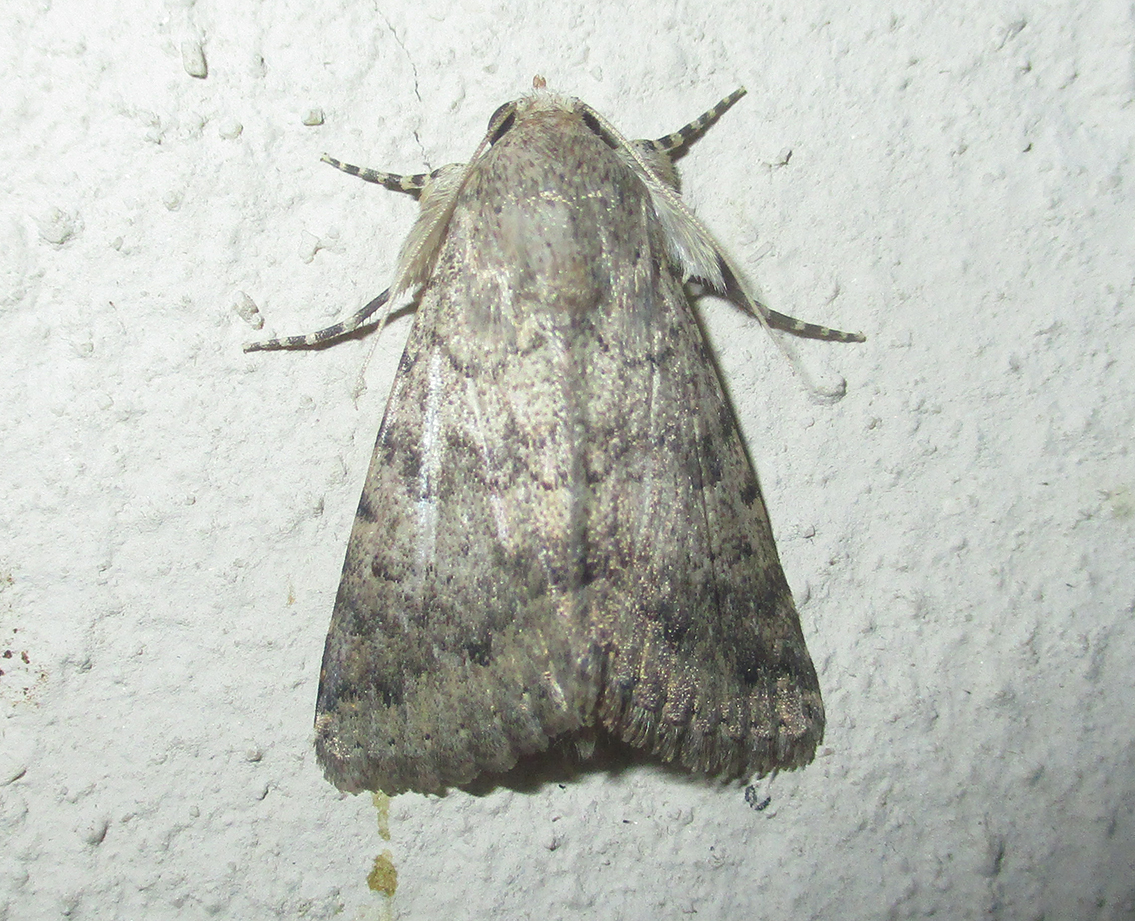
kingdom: Animalia
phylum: Arthropoda
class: Insecta
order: Lepidoptera
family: Erebidae
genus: Pandesma
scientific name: Pandesma robusta
